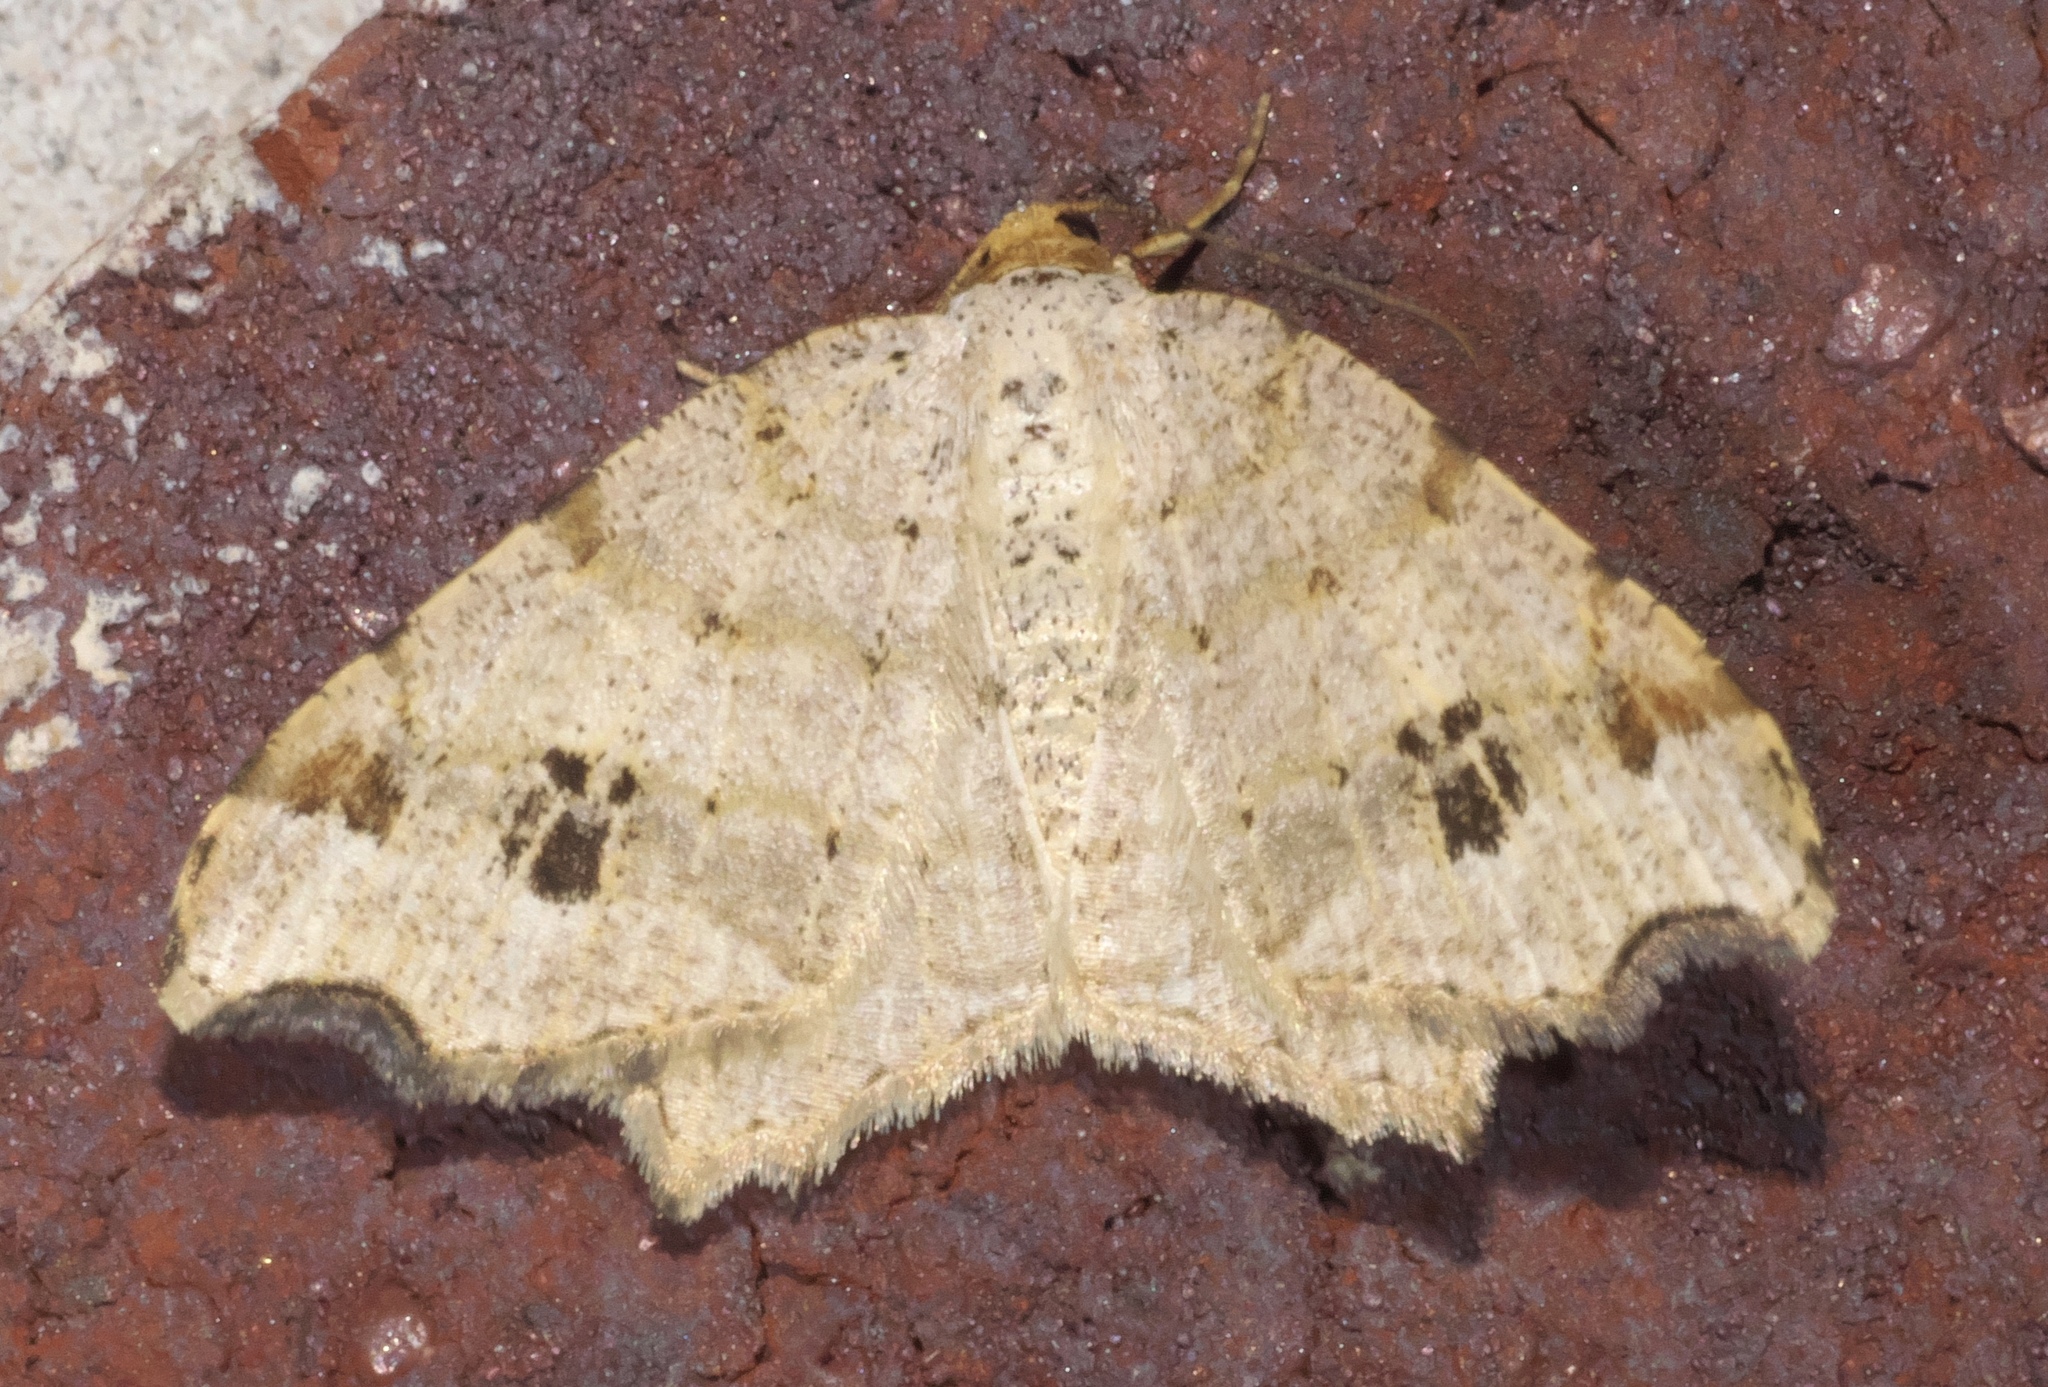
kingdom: Animalia
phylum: Arthropoda
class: Insecta
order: Lepidoptera
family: Geometridae
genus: Macaria
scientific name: Macaria aemulataria
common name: Common angle
